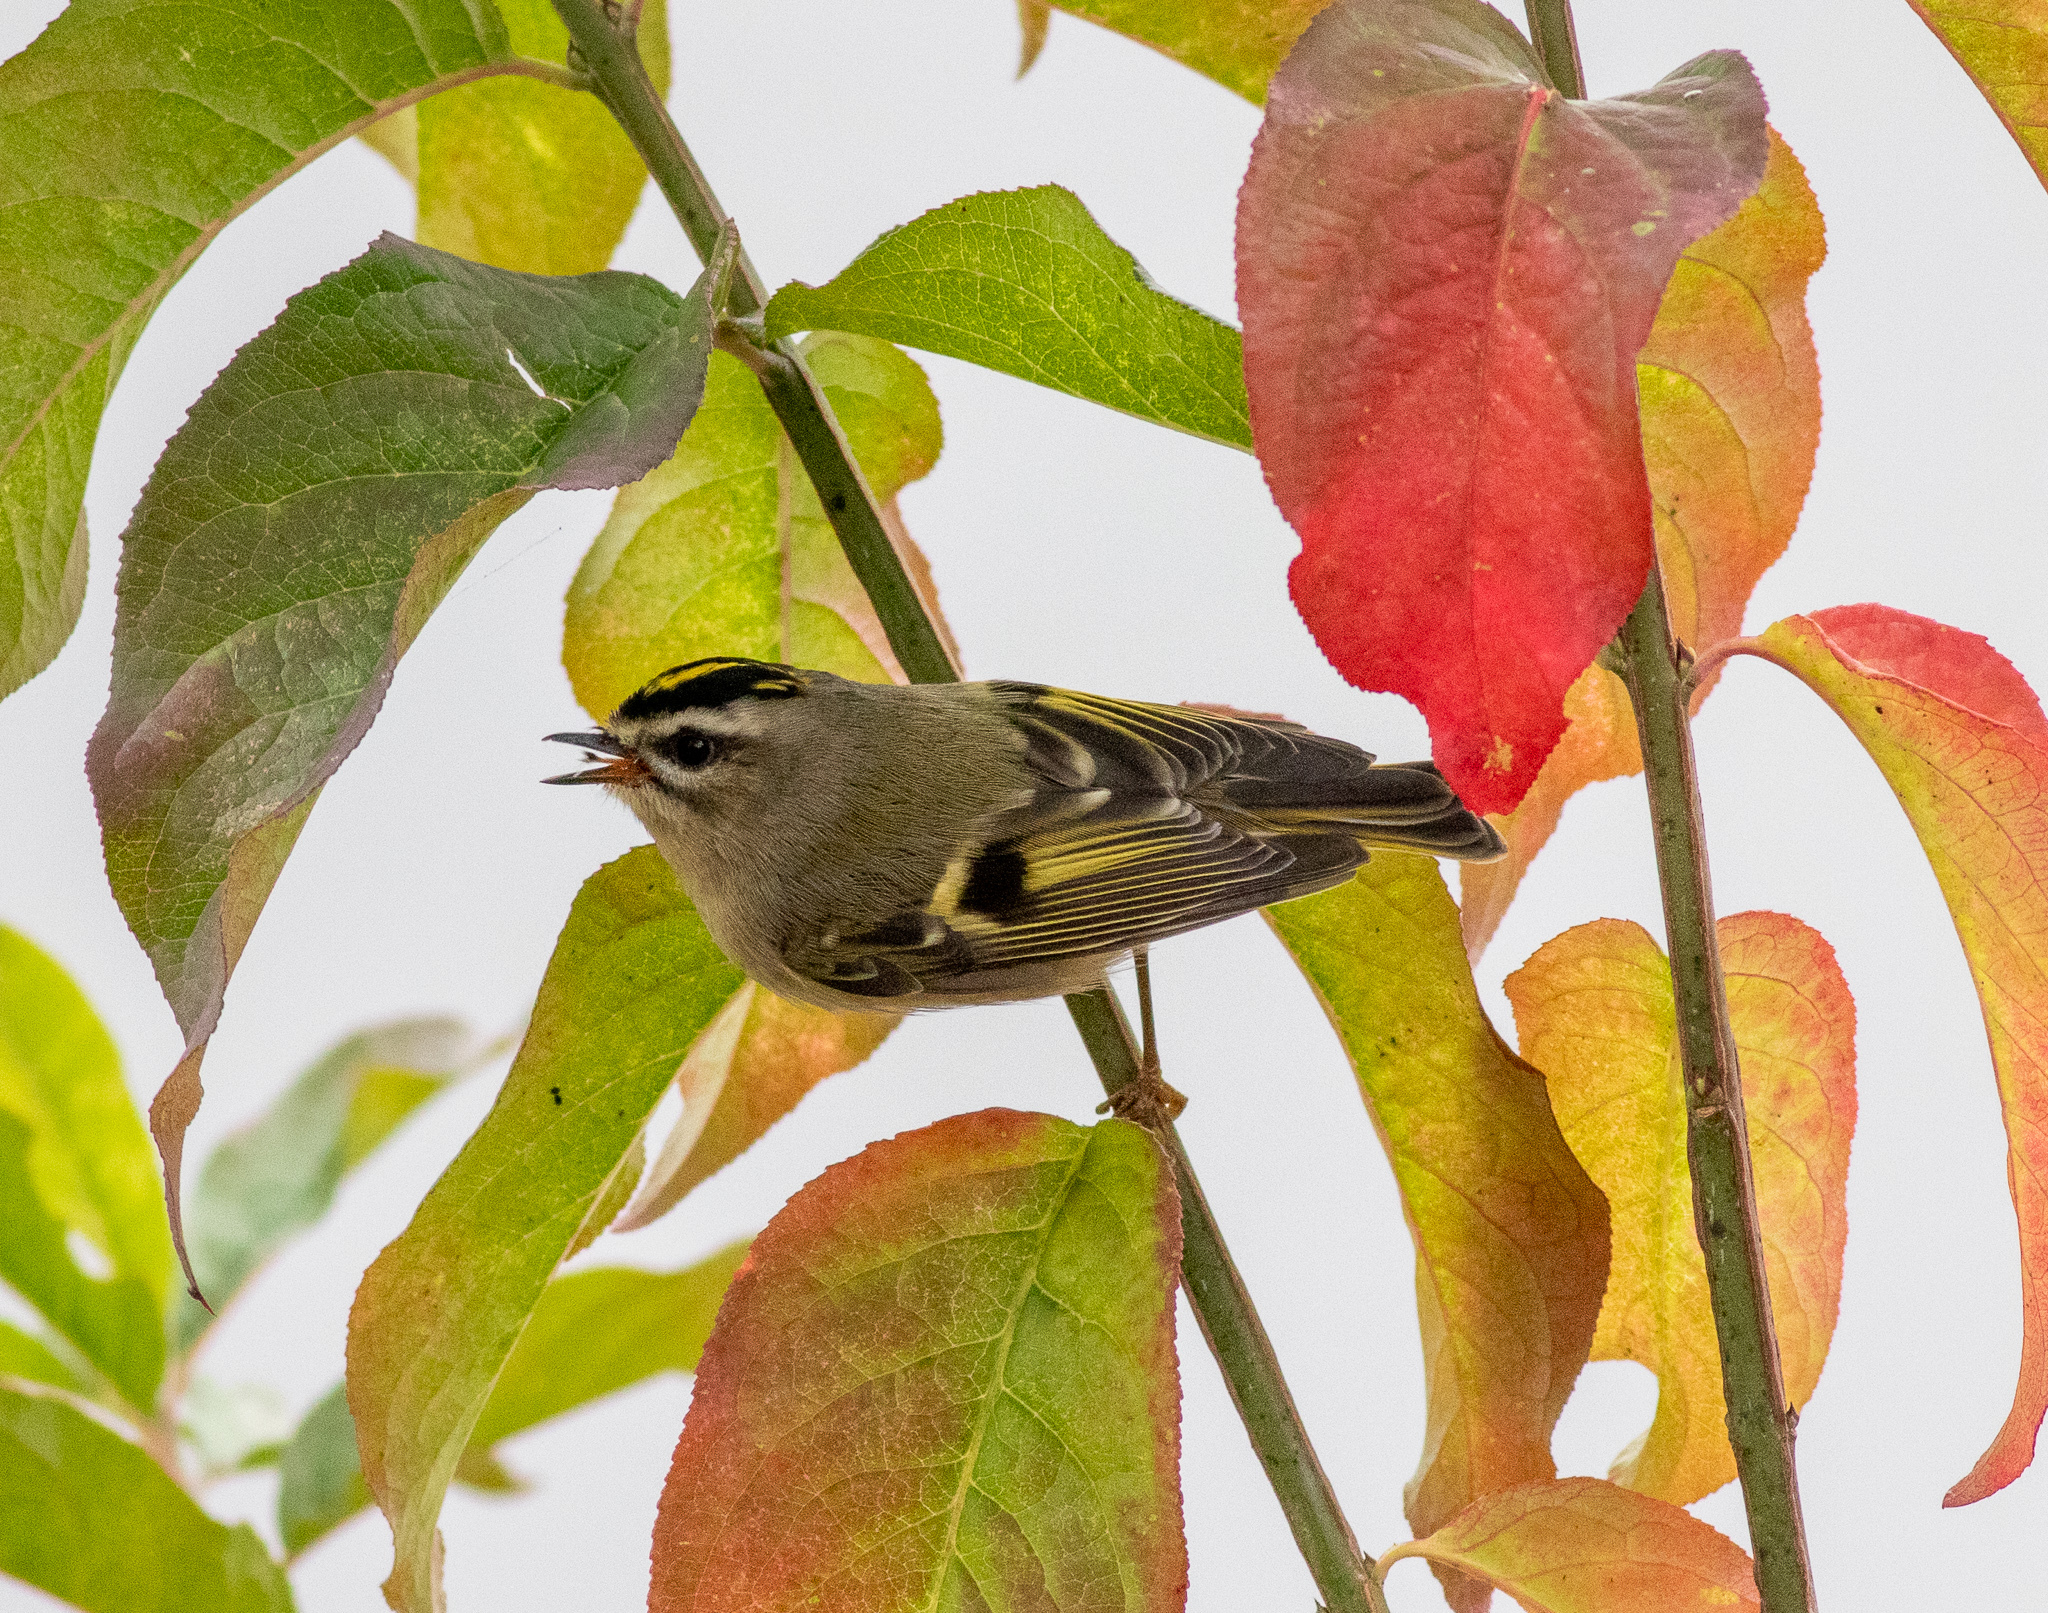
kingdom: Animalia
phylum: Chordata
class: Aves
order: Passeriformes
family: Regulidae
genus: Regulus
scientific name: Regulus satrapa
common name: Golden-crowned kinglet
